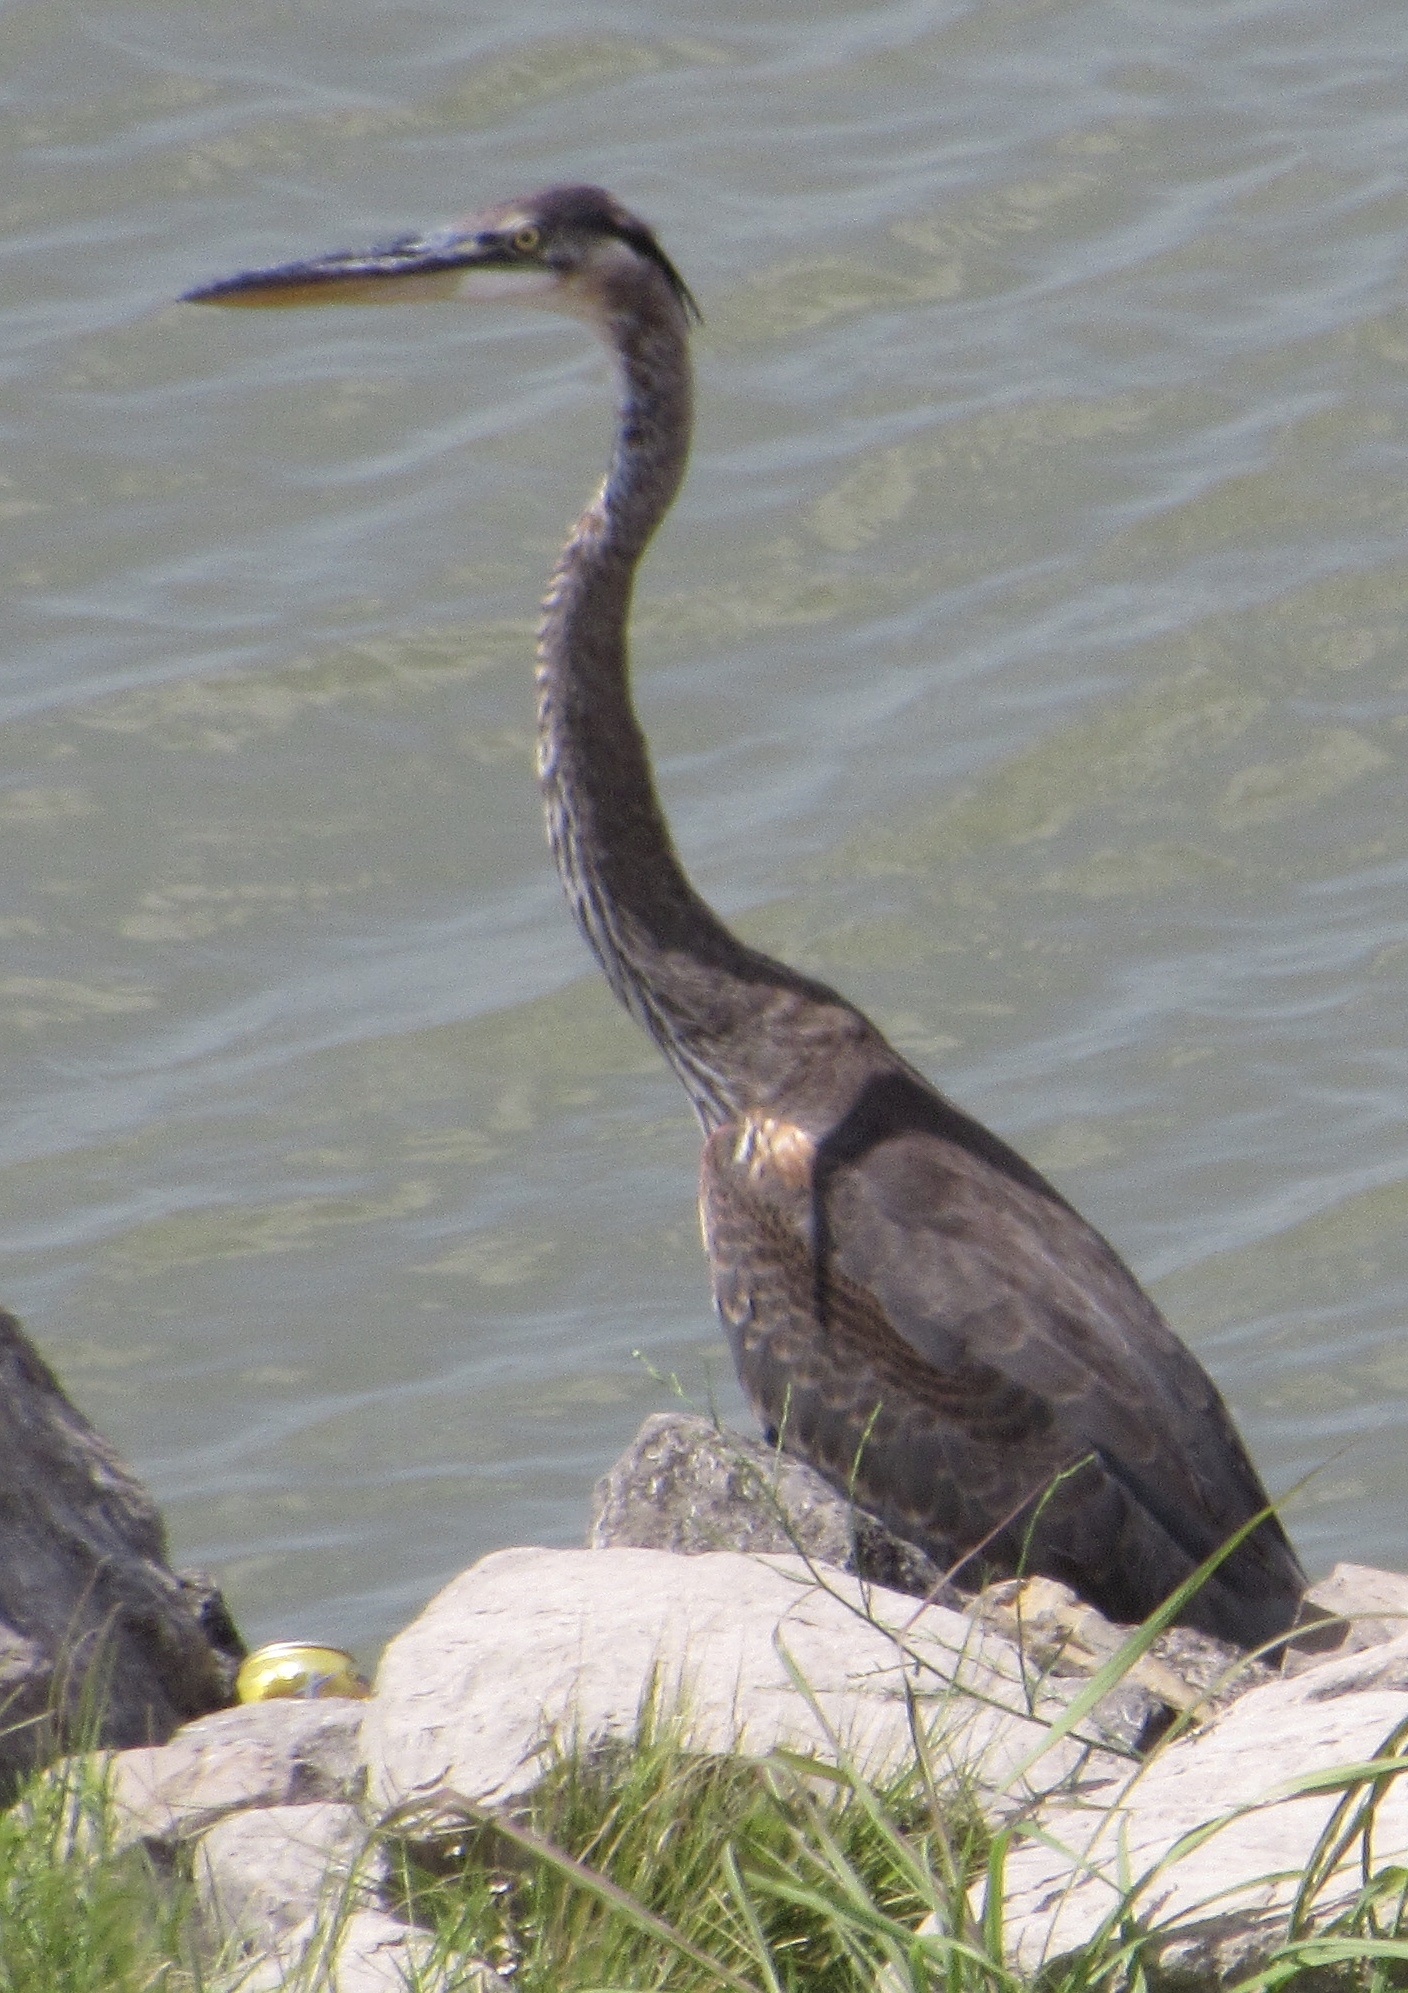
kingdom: Animalia
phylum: Chordata
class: Aves
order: Pelecaniformes
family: Ardeidae
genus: Ardea
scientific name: Ardea herodias
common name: Great blue heron
